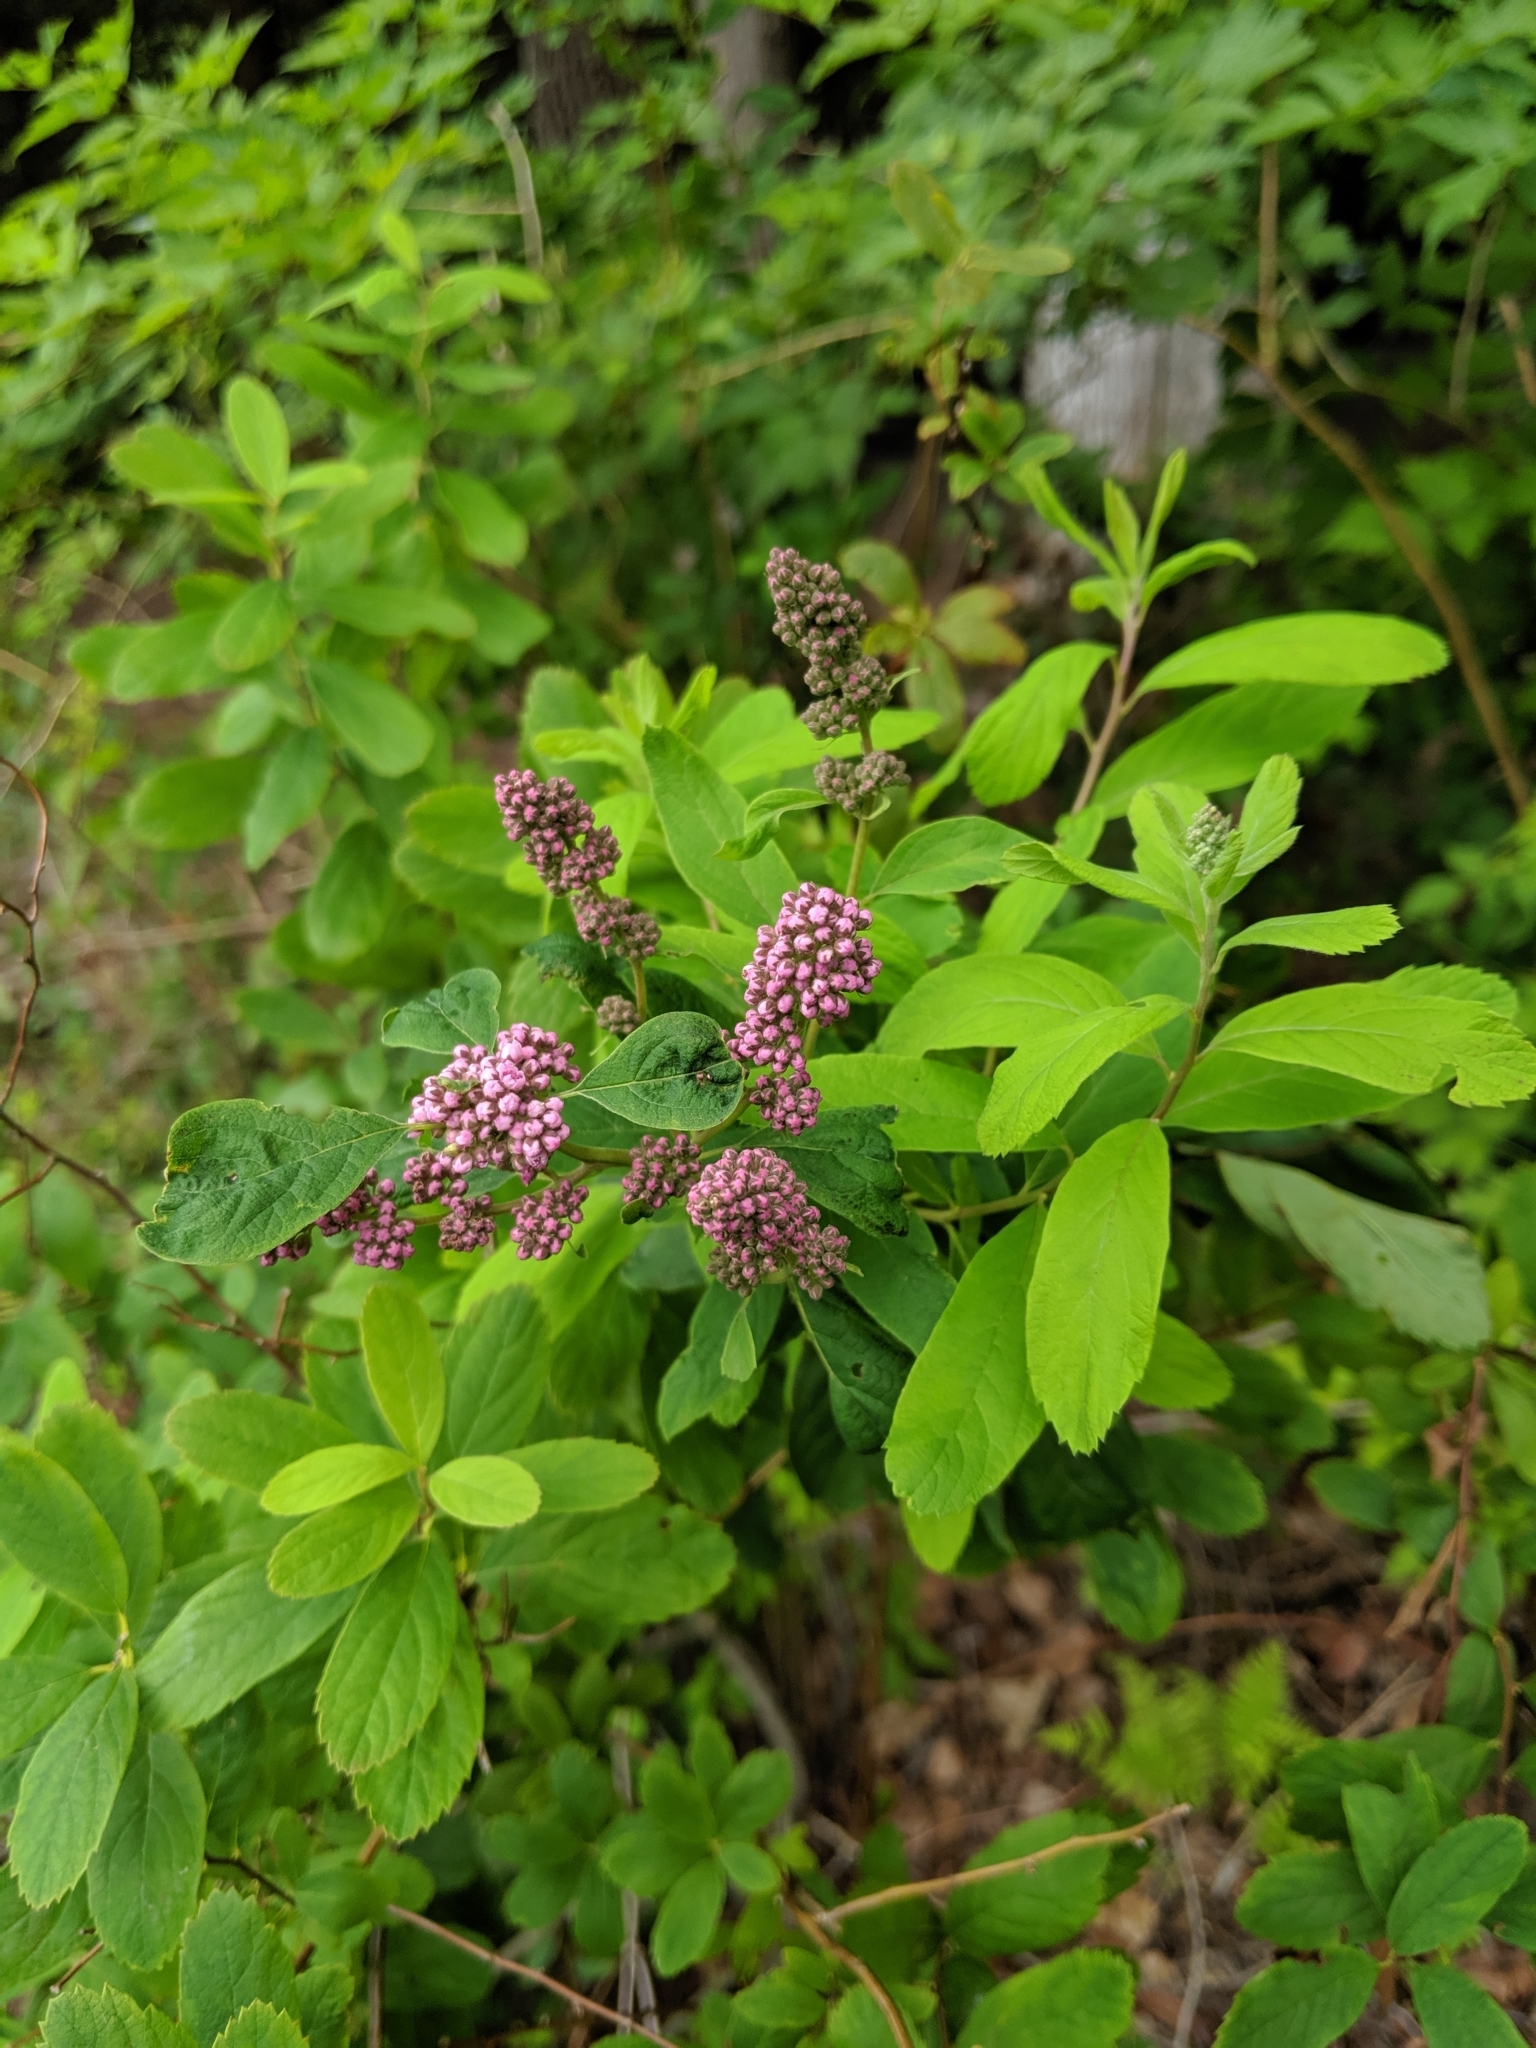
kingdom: Plantae
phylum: Tracheophyta
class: Magnoliopsida
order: Rosales
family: Rosaceae
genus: Spiraea
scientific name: Spiraea douglasii
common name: Steeplebush
